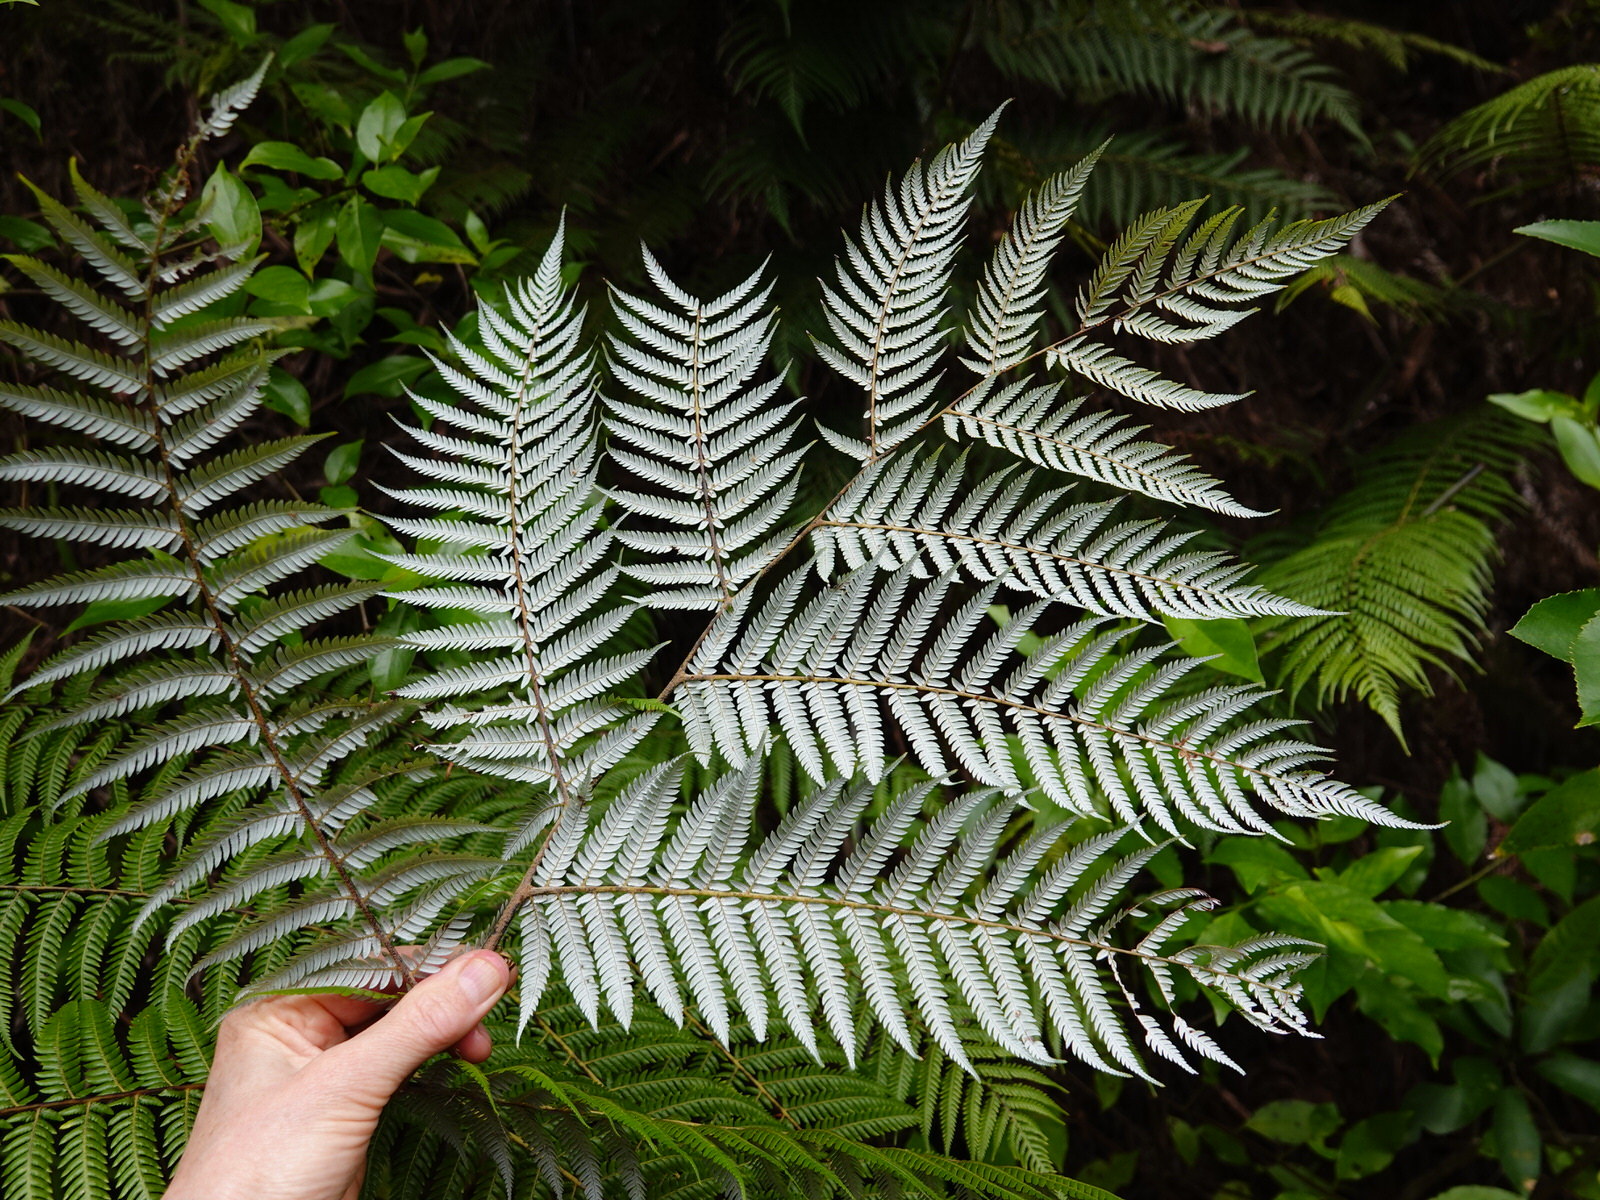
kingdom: Animalia
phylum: Arthropoda
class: Insecta
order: Hemiptera
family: Ricaniidae
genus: Scolypopa
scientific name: Scolypopa australis
